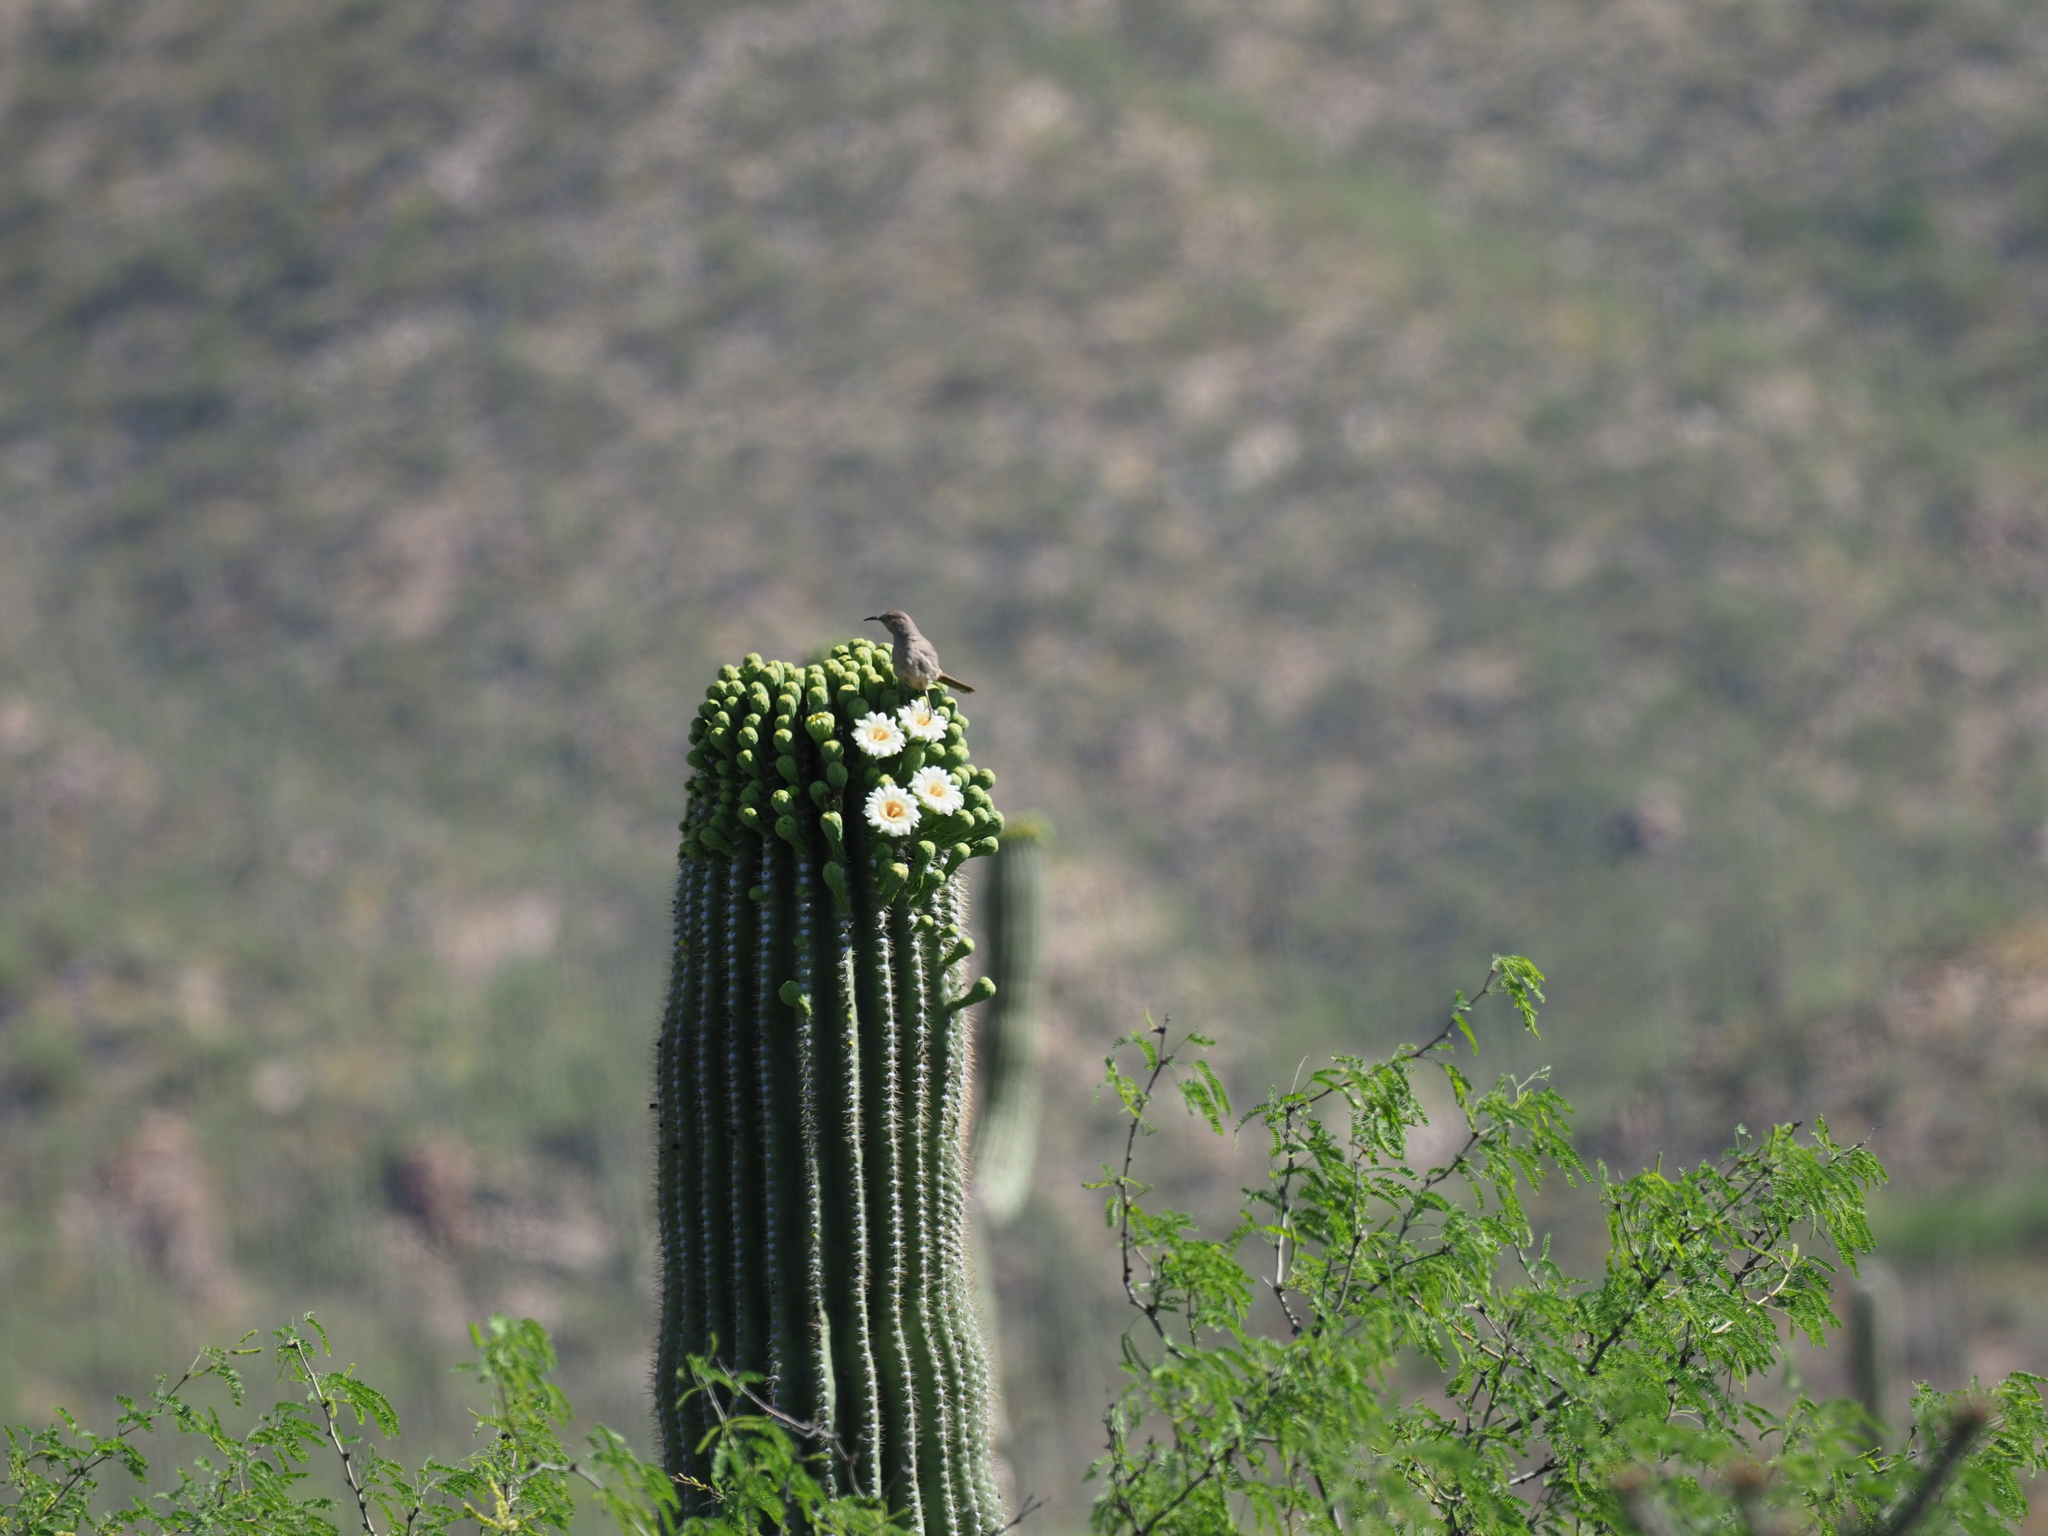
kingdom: Animalia
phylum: Chordata
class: Aves
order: Passeriformes
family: Mimidae
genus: Toxostoma
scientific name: Toxostoma curvirostre
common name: Curve-billed thrasher
